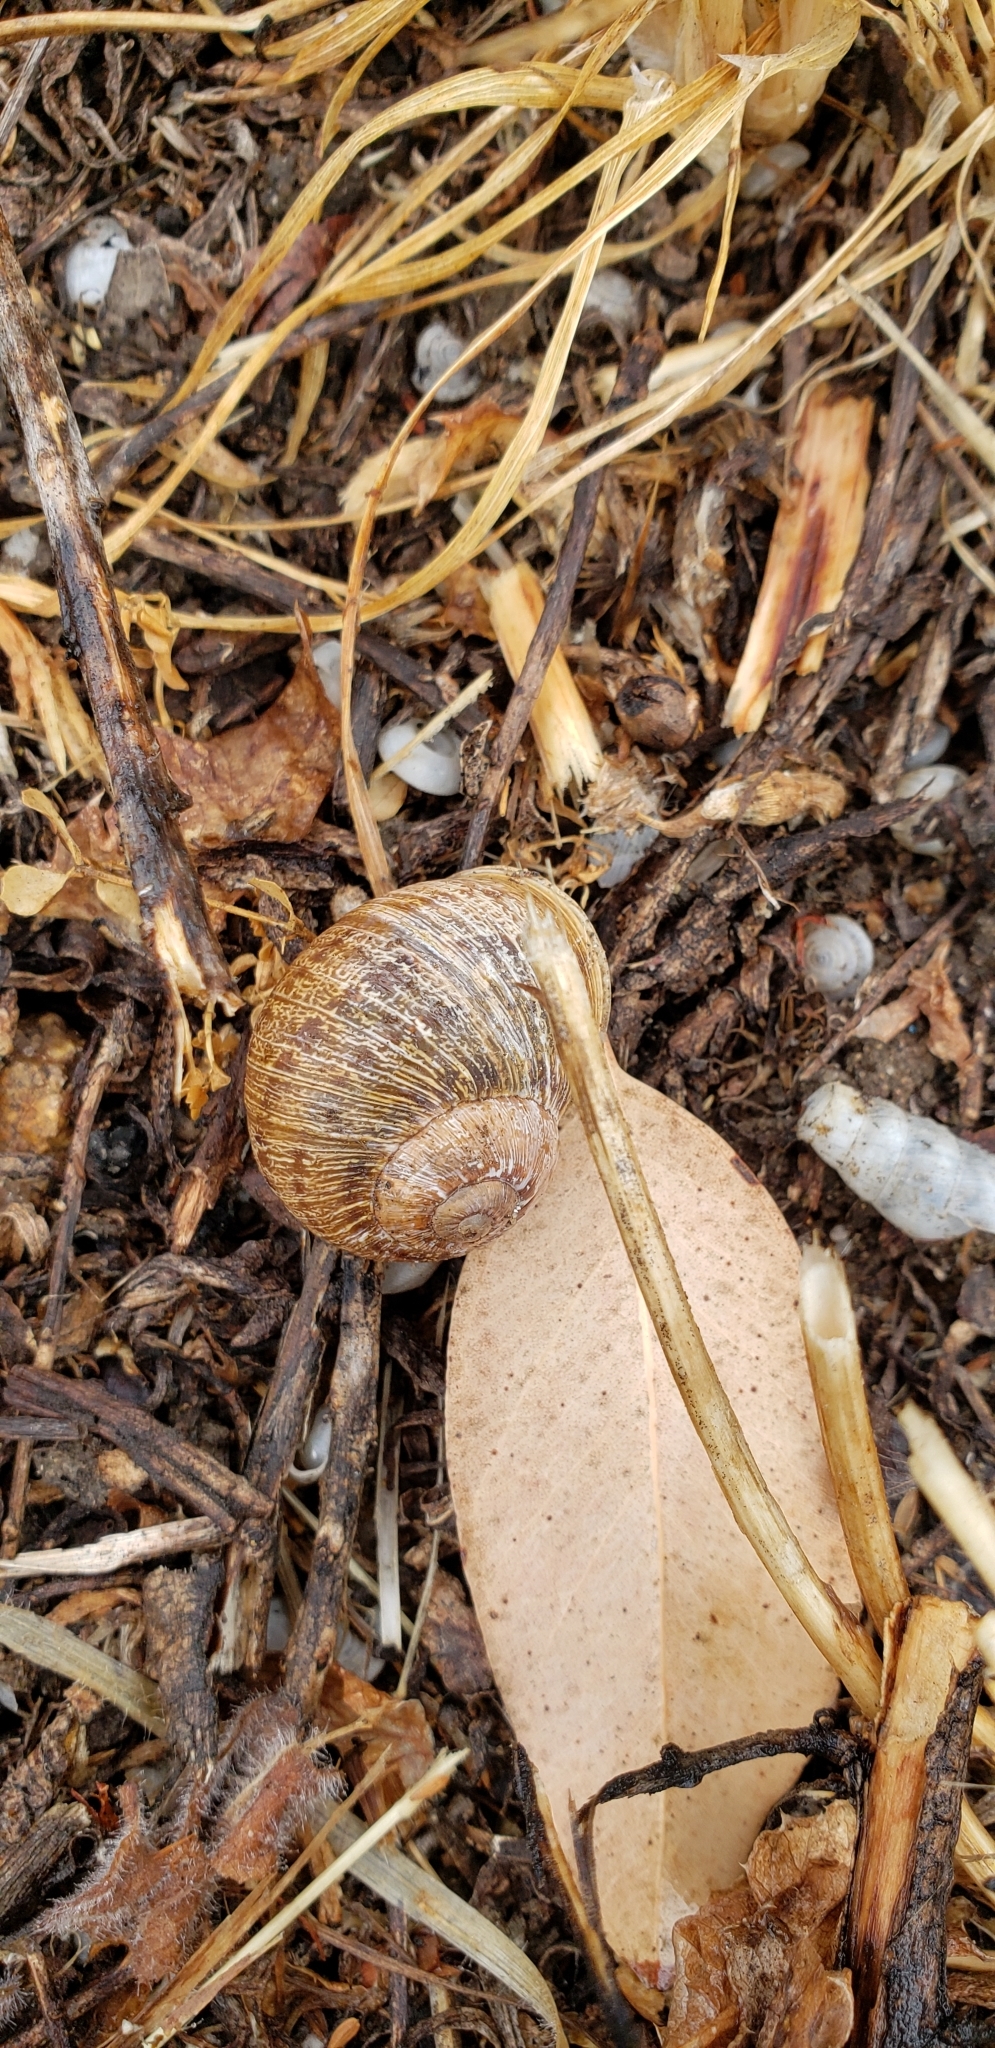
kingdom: Animalia
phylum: Mollusca
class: Gastropoda
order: Stylommatophora
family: Helicidae
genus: Cornu
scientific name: Cornu aspersum
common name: Brown garden snail
